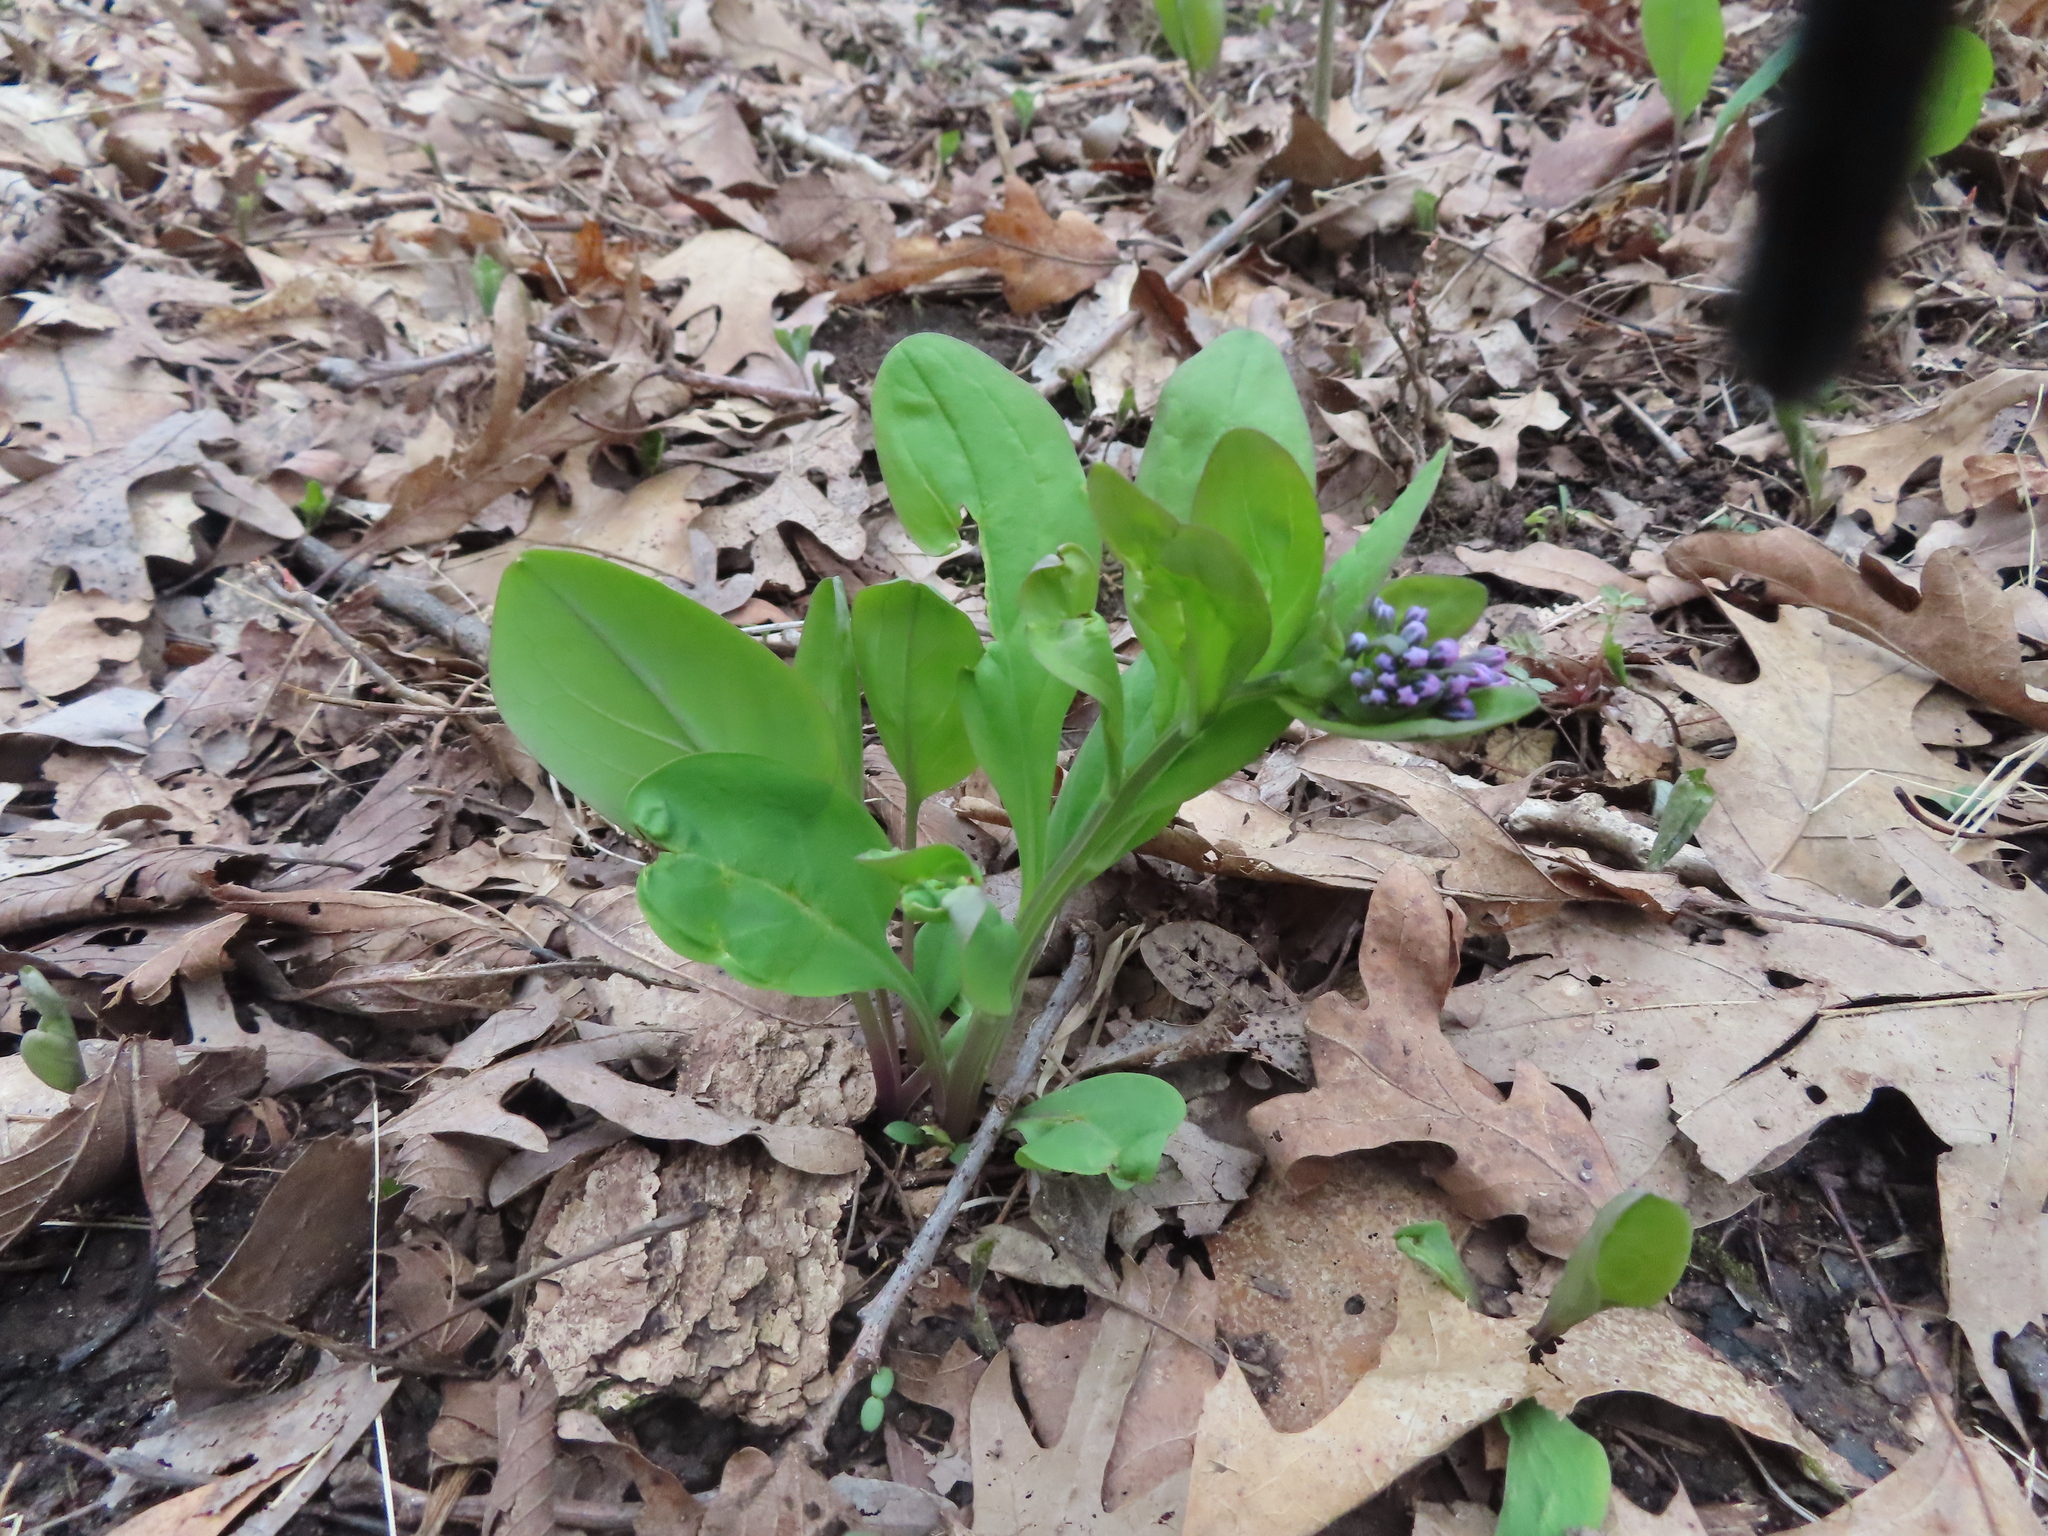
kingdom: Plantae
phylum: Tracheophyta
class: Magnoliopsida
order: Boraginales
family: Boraginaceae
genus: Mertensia
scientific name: Mertensia virginica
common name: Virginia bluebells
